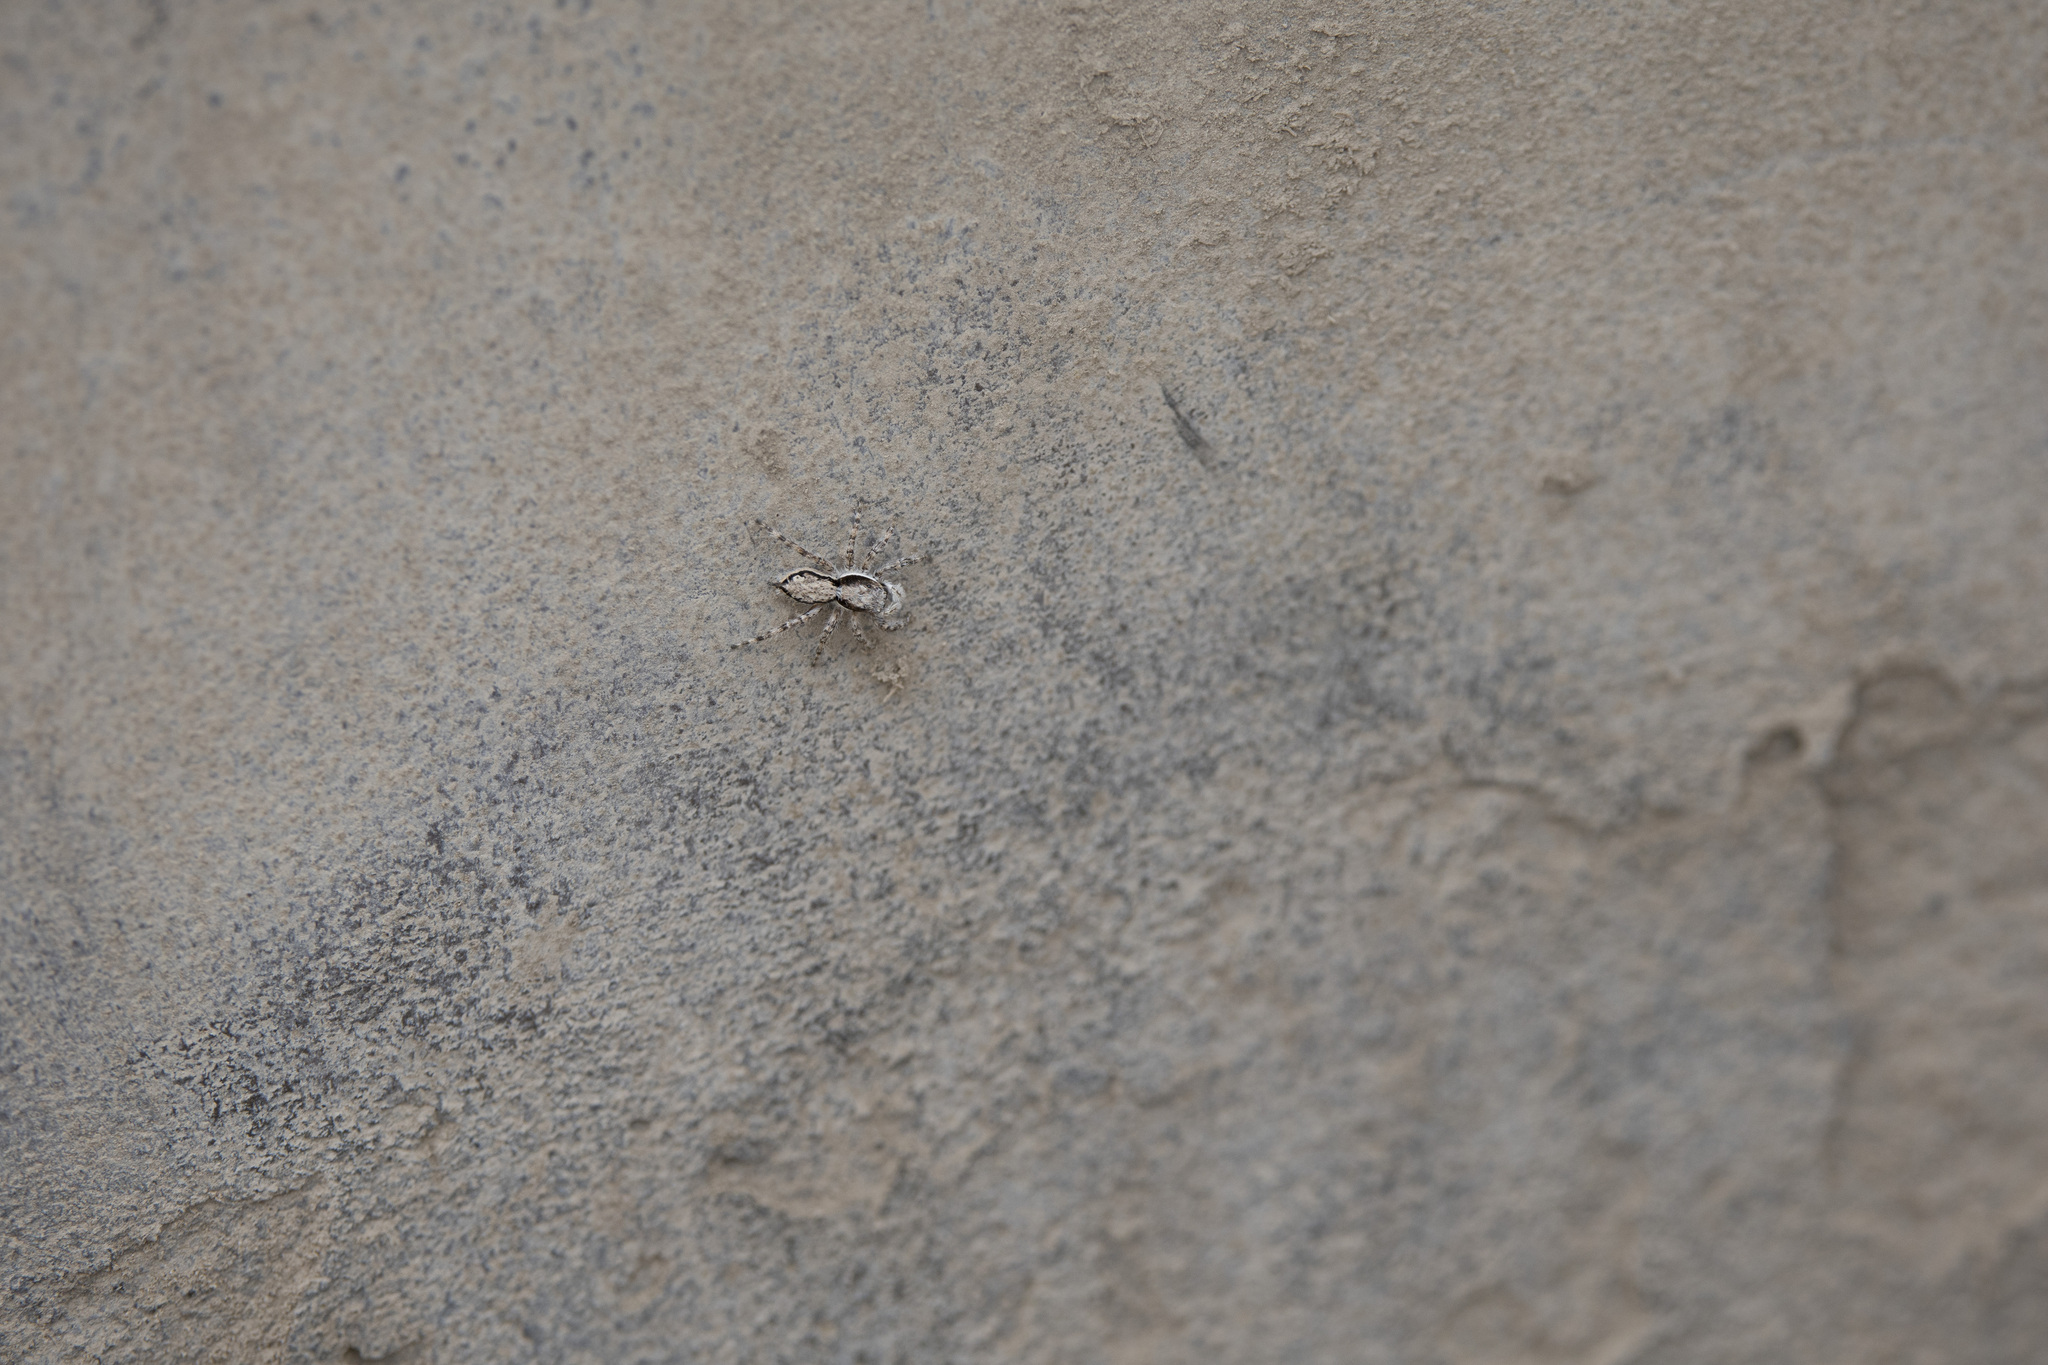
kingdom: Animalia
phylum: Arthropoda
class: Arachnida
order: Araneae
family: Salticidae
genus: Menemerus
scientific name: Menemerus bivittatus
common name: Gray wall jumper
